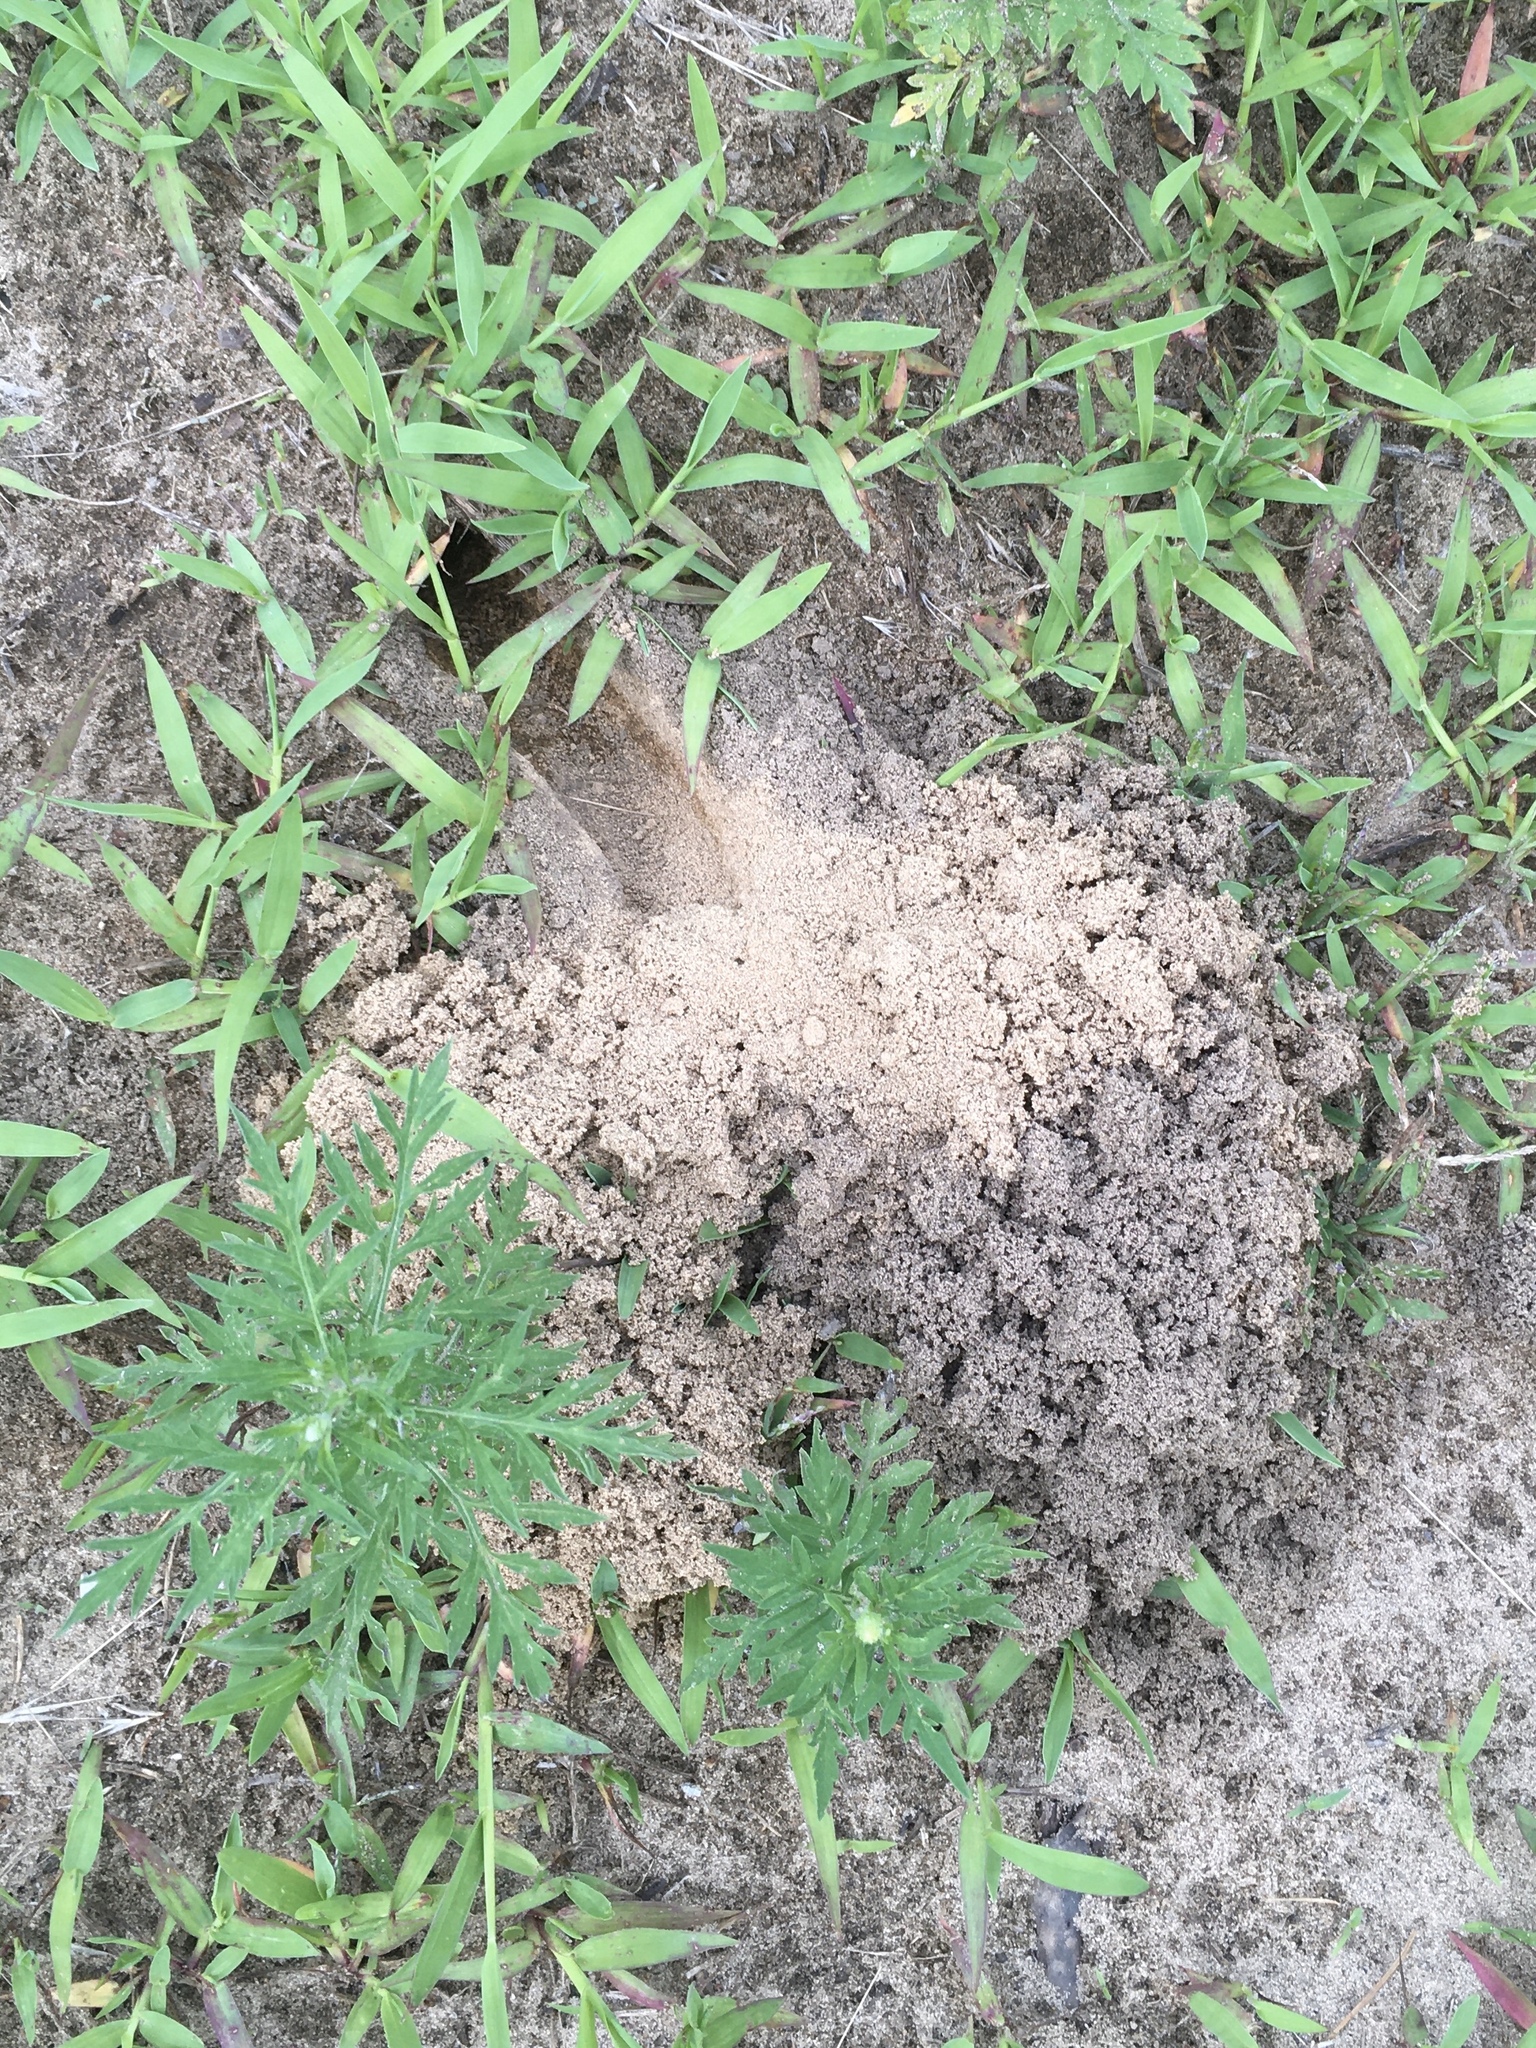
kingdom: Animalia
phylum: Arthropoda
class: Insecta
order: Hymenoptera
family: Crabronidae
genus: Sphecius
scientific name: Sphecius speciosus
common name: Cicada killer
